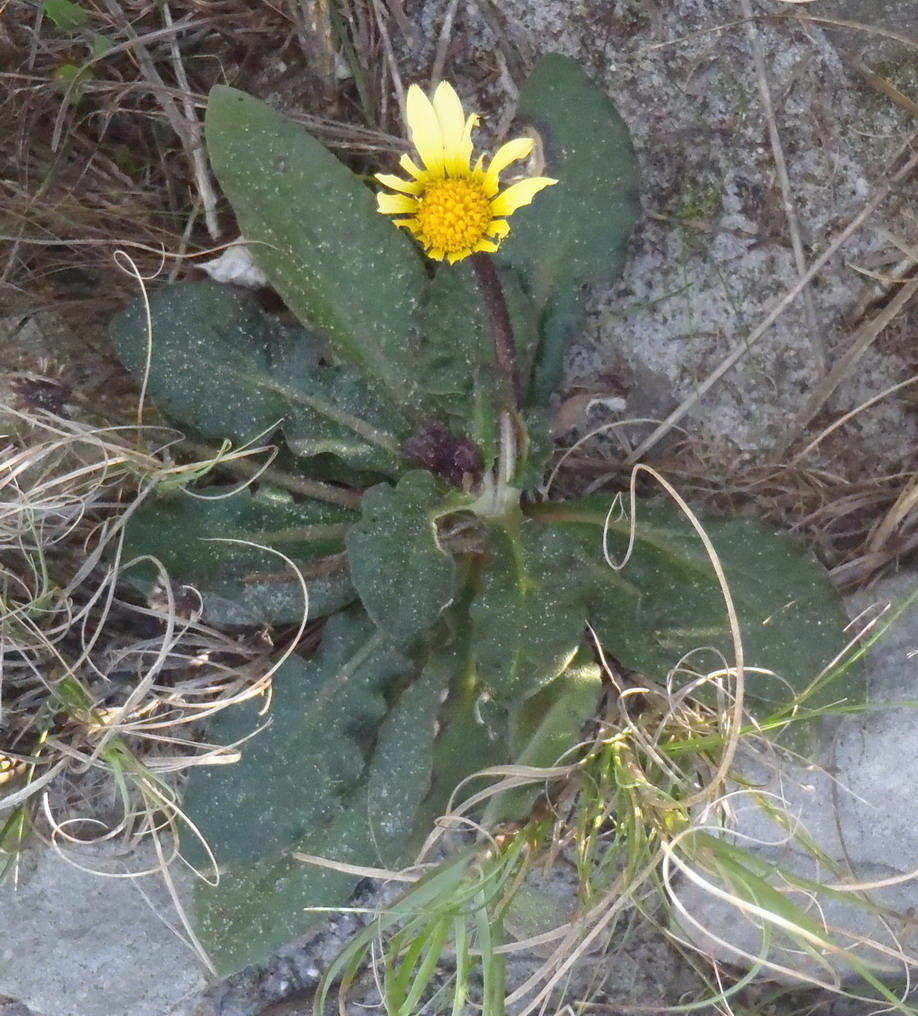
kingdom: Plantae
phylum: Tracheophyta
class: Magnoliopsida
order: Asterales
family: Asteraceae
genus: Haplocarpha
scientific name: Haplocarpha lanata
